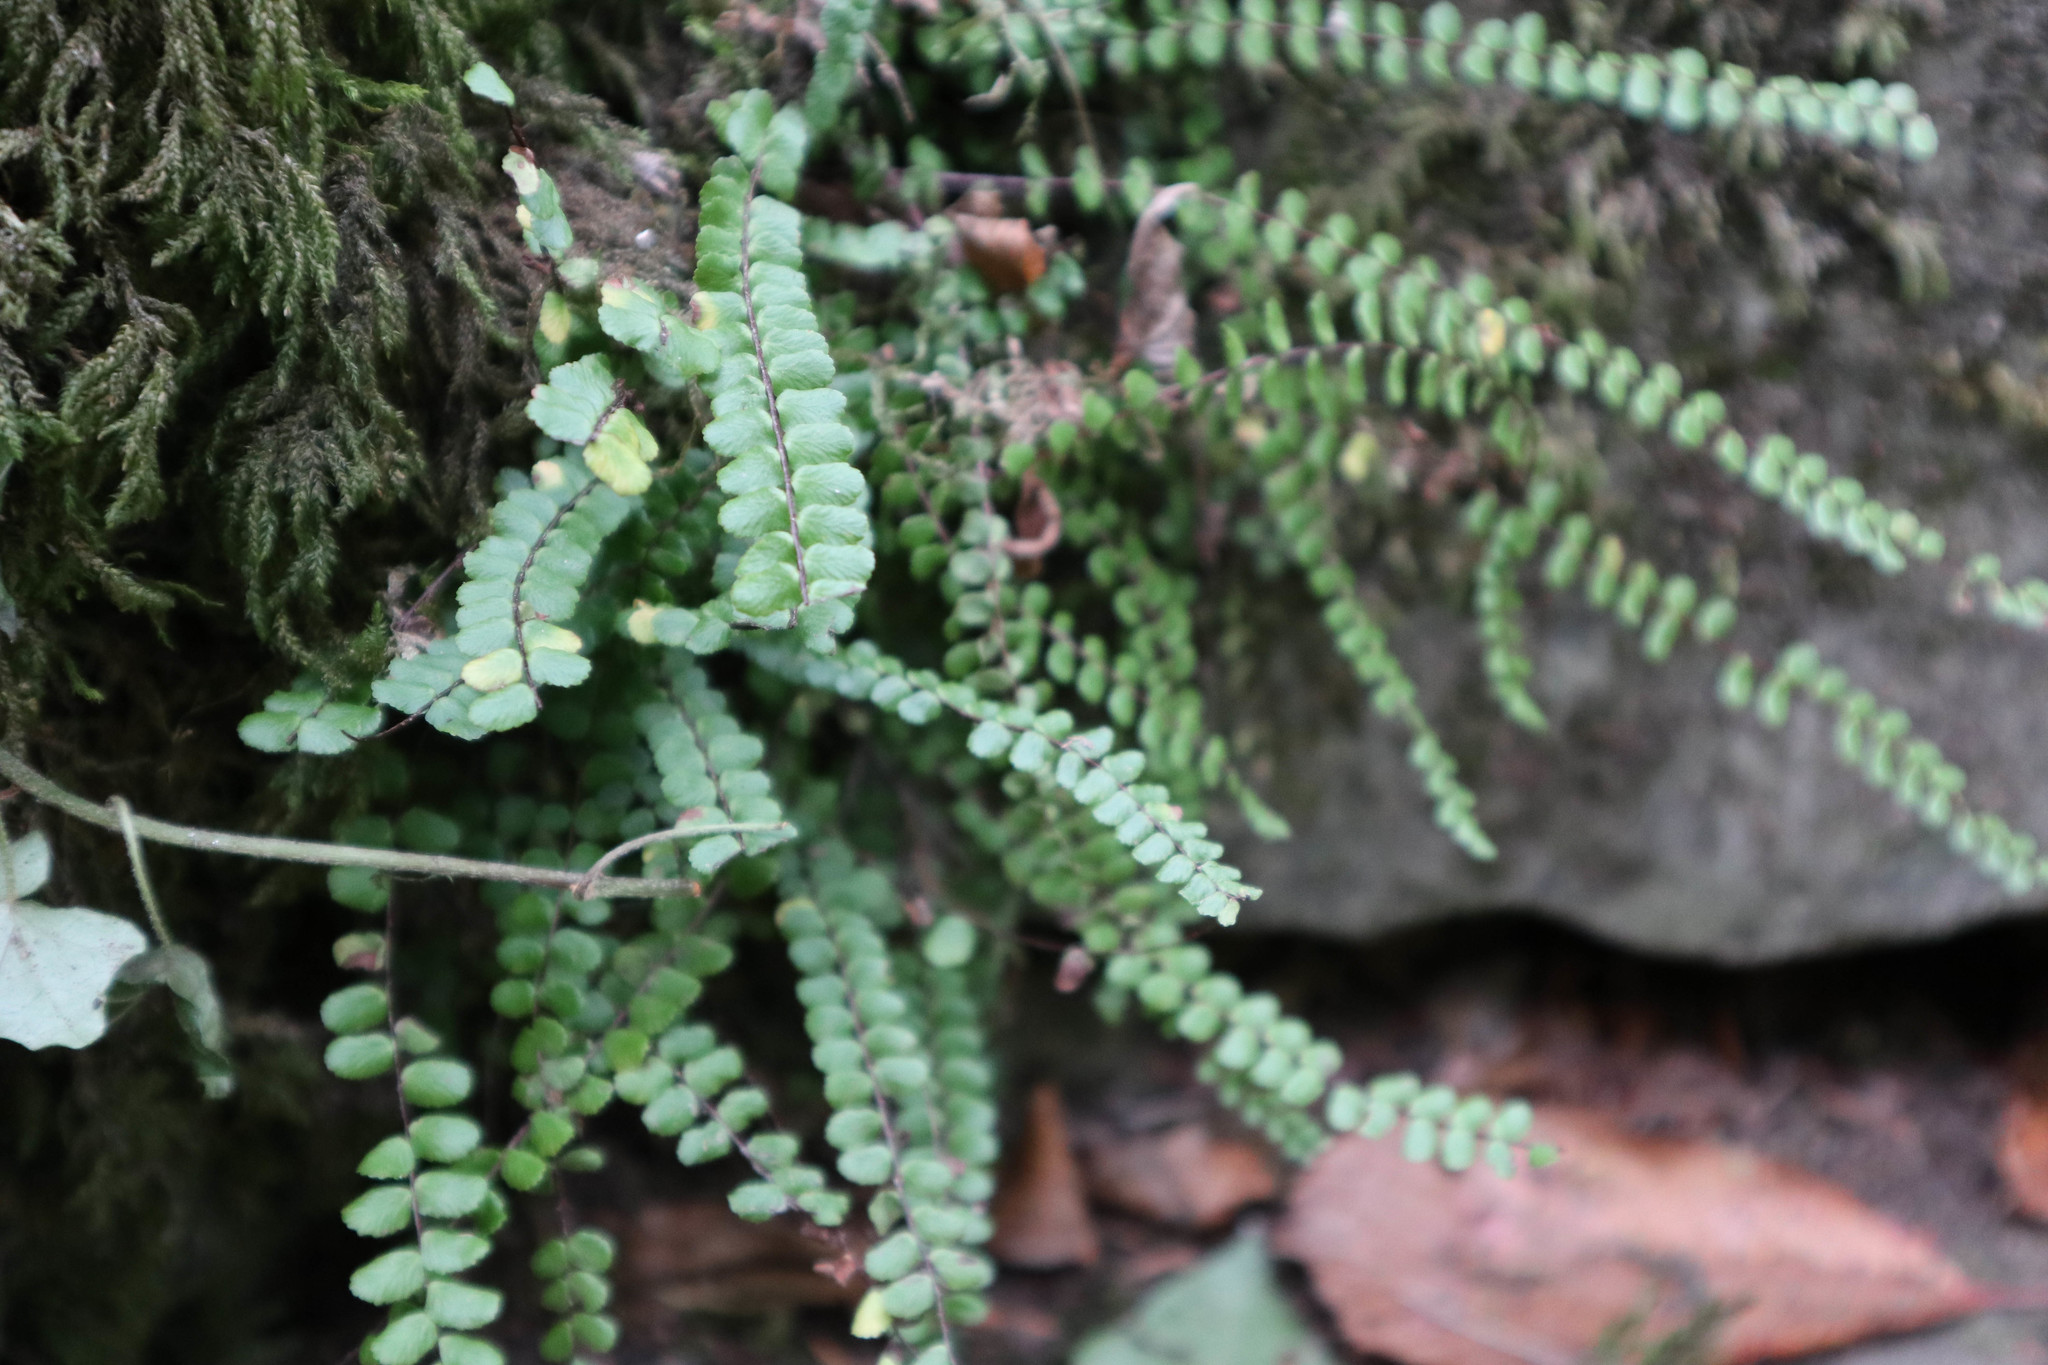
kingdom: Plantae
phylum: Tracheophyta
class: Polypodiopsida
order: Polypodiales
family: Aspleniaceae
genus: Asplenium
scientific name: Asplenium trichomanes
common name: Maidenhair spleenwort
